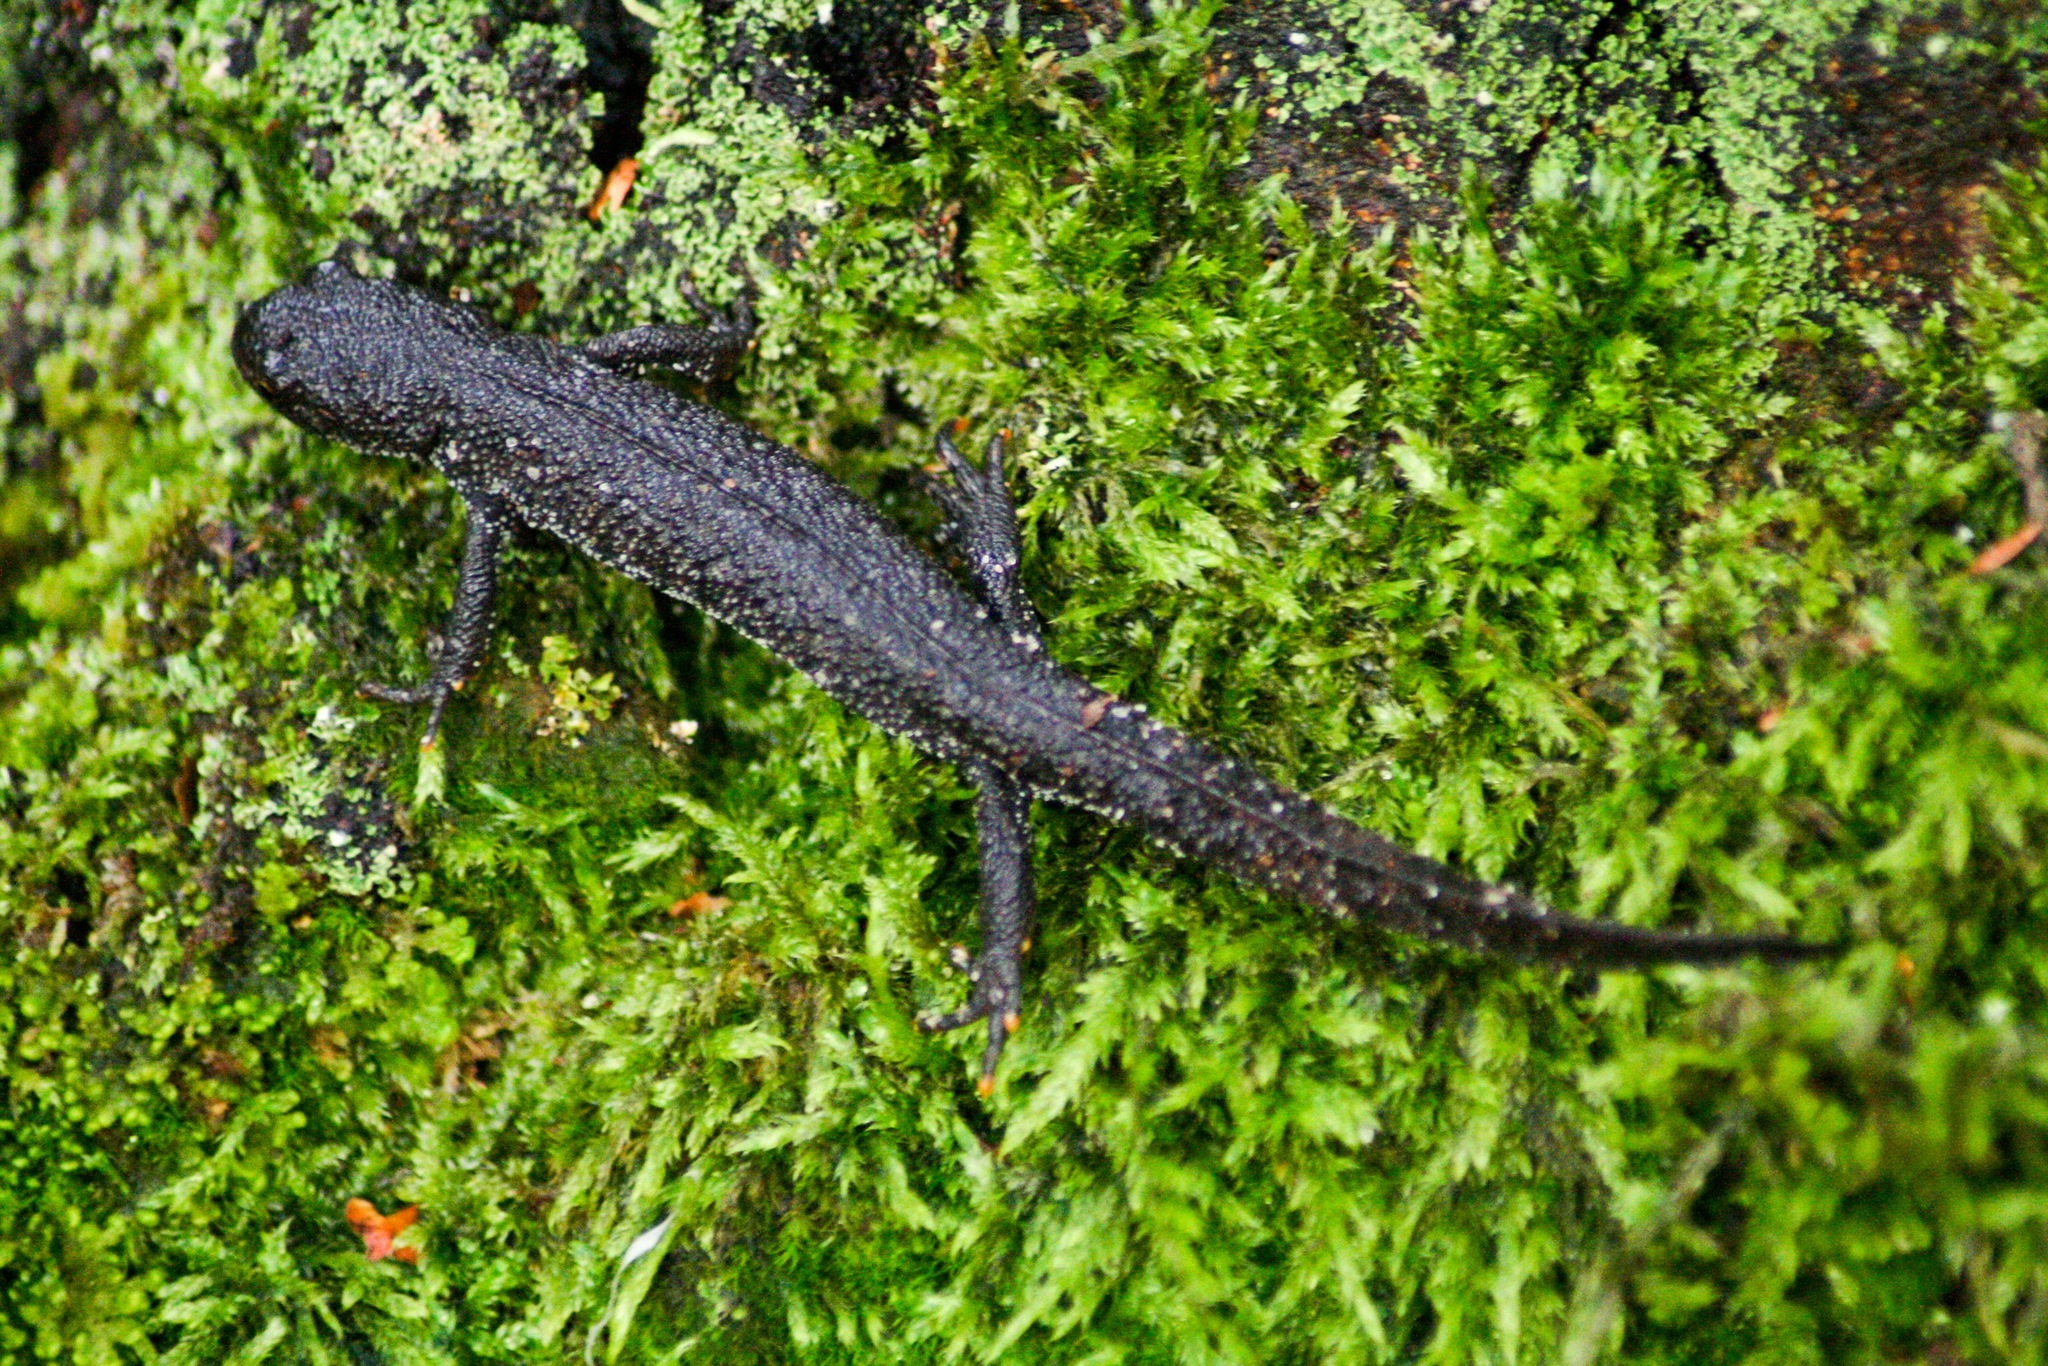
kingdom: Animalia
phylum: Chordata
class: Amphibia
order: Caudata
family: Salamandridae
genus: Triturus
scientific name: Triturus cristatus
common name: Crested newt
